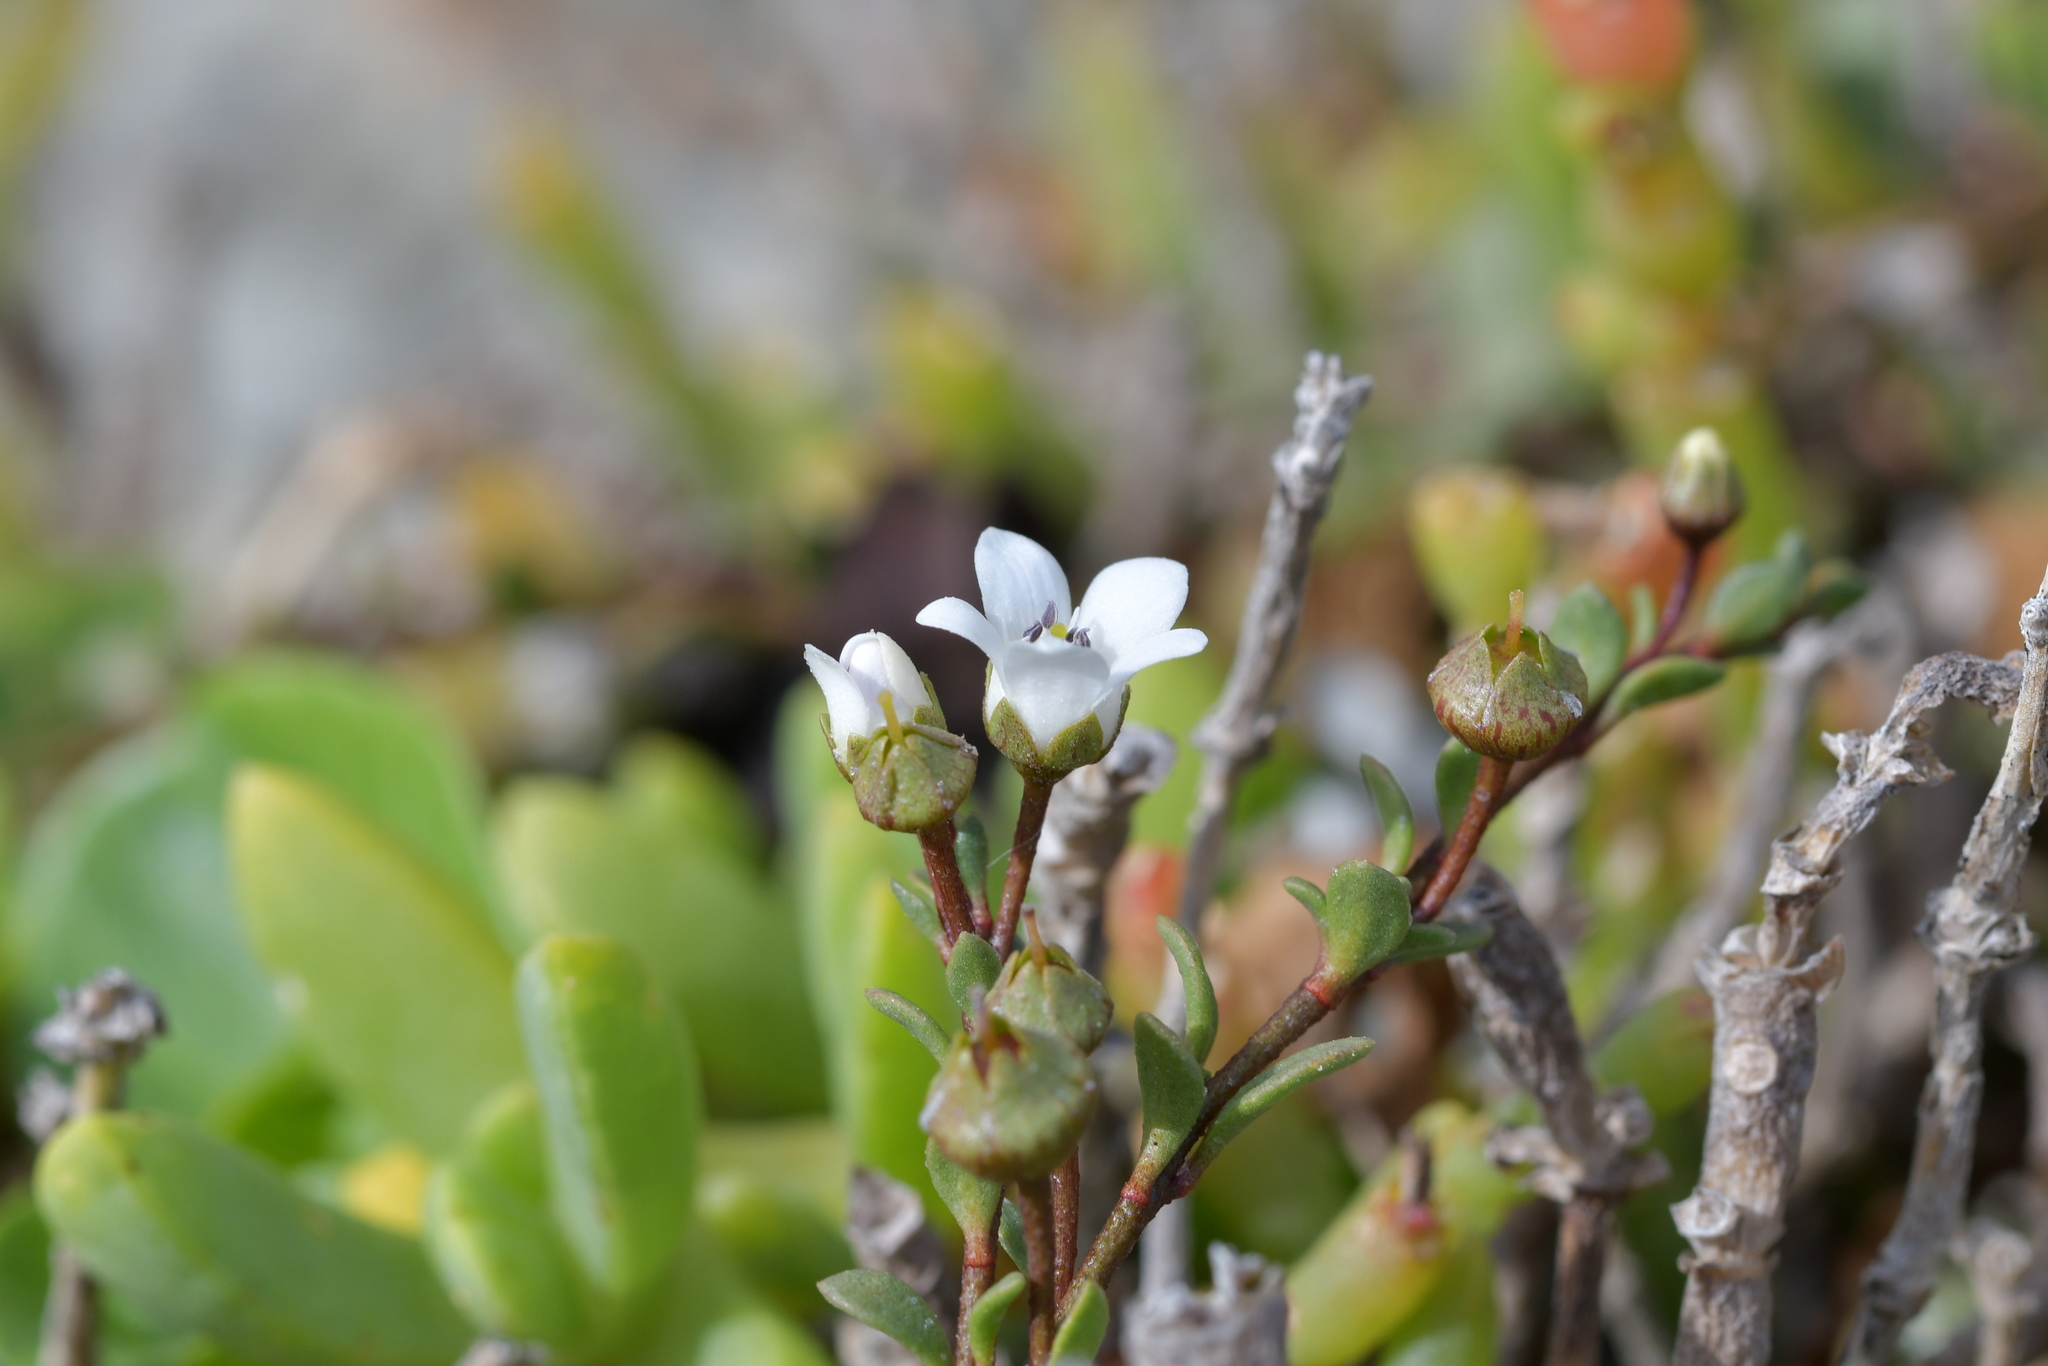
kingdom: Plantae
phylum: Tracheophyta
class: Magnoliopsida
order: Ericales
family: Primulaceae
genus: Samolus
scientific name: Samolus repens
